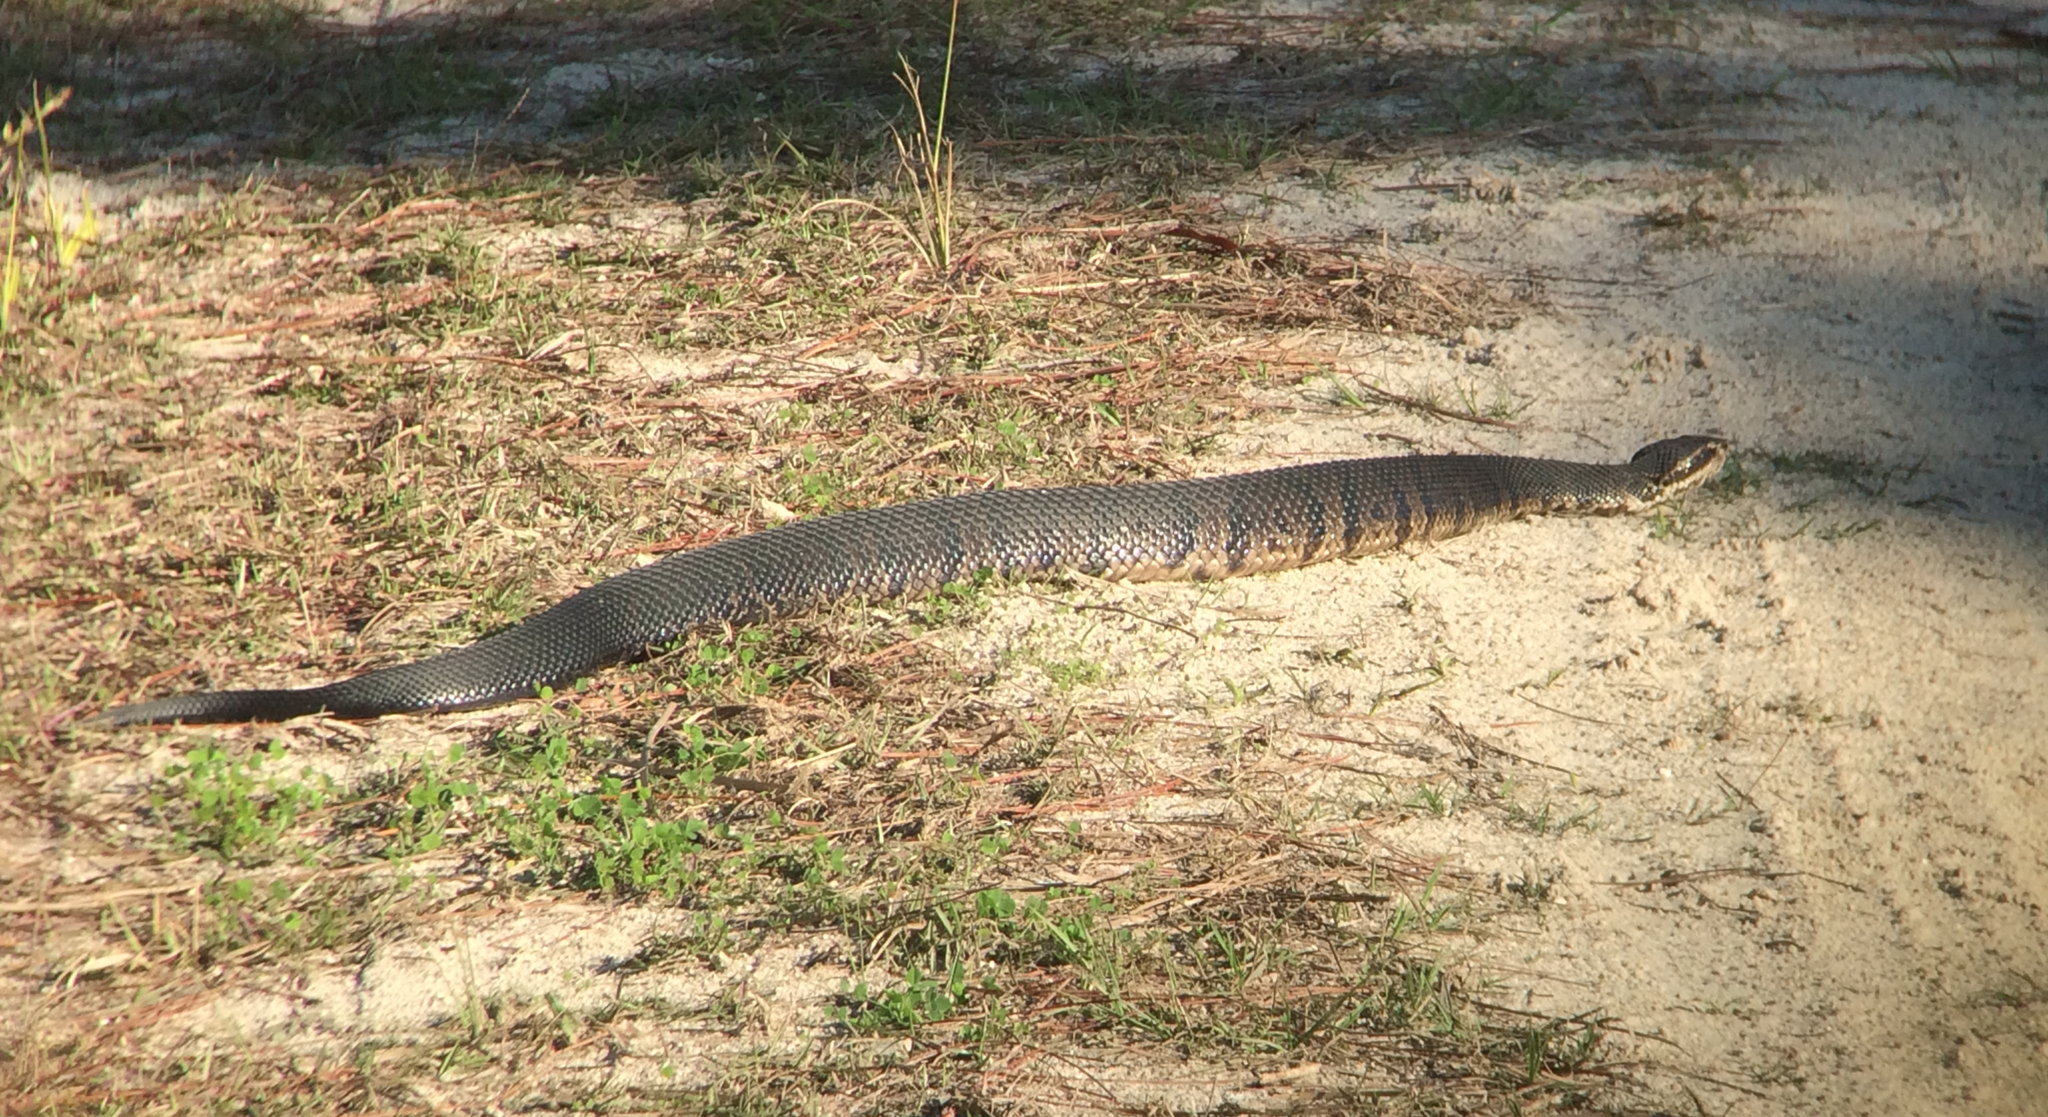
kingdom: Animalia
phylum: Chordata
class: Squamata
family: Viperidae
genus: Agkistrodon
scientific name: Agkistrodon conanti
